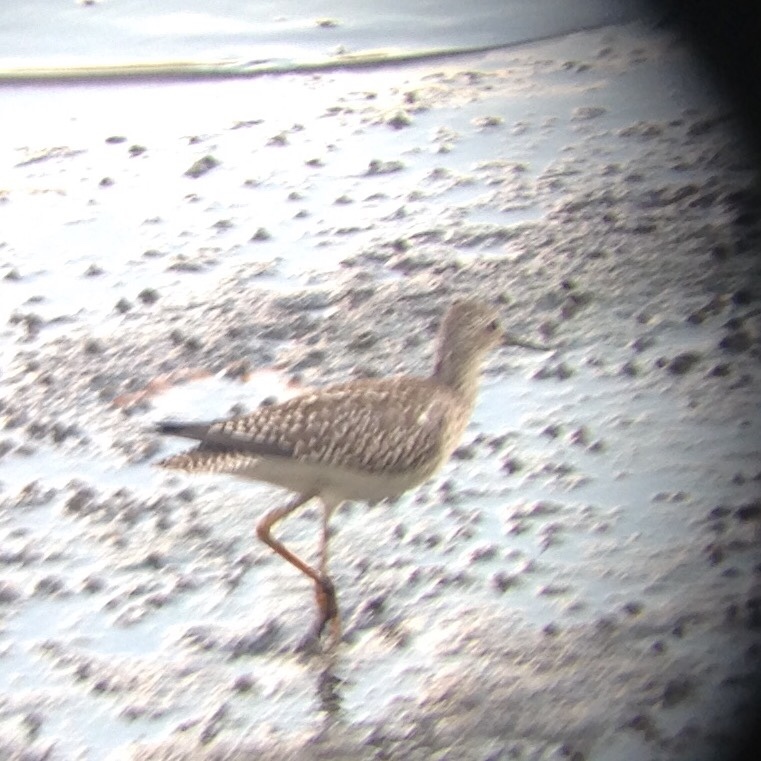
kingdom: Animalia
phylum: Chordata
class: Aves
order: Charadriiformes
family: Scolopacidae
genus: Calidris
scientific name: Calidris melanotos
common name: Pectoral sandpiper
